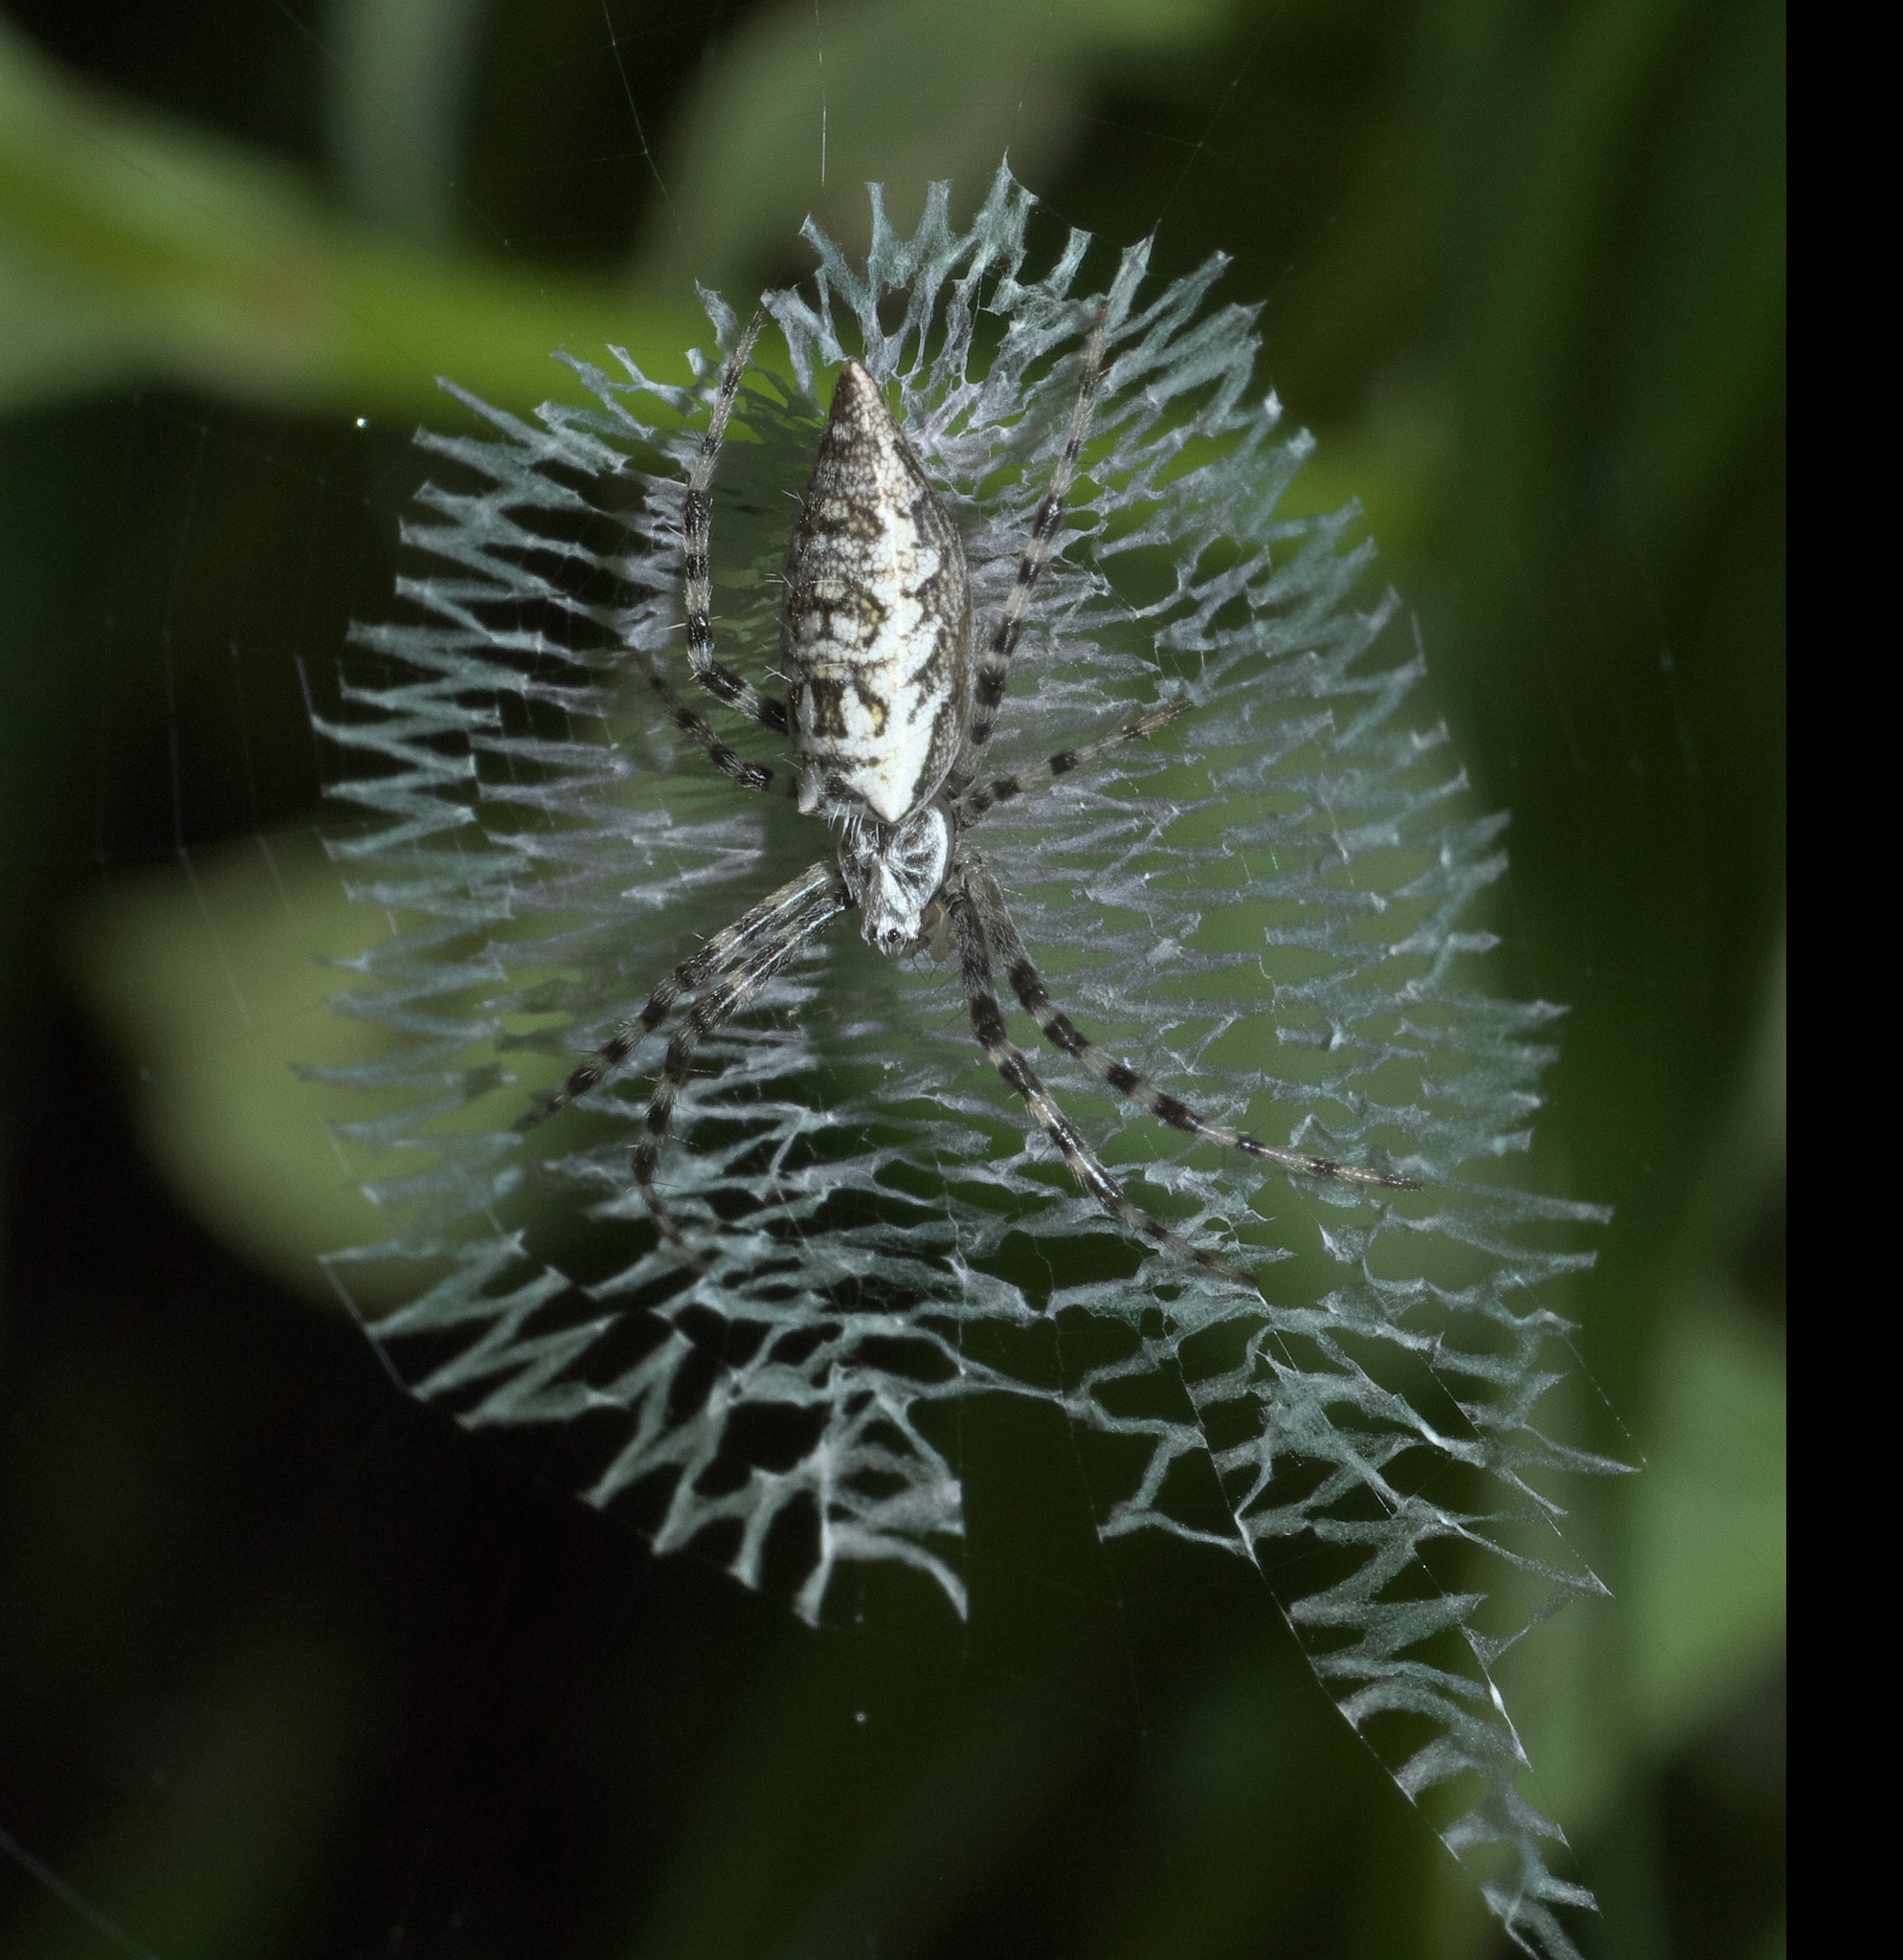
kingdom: Animalia
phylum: Arthropoda
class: Arachnida
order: Araneae
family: Araneidae
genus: Argiope
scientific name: Argiope aurantia
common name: Orb weavers
